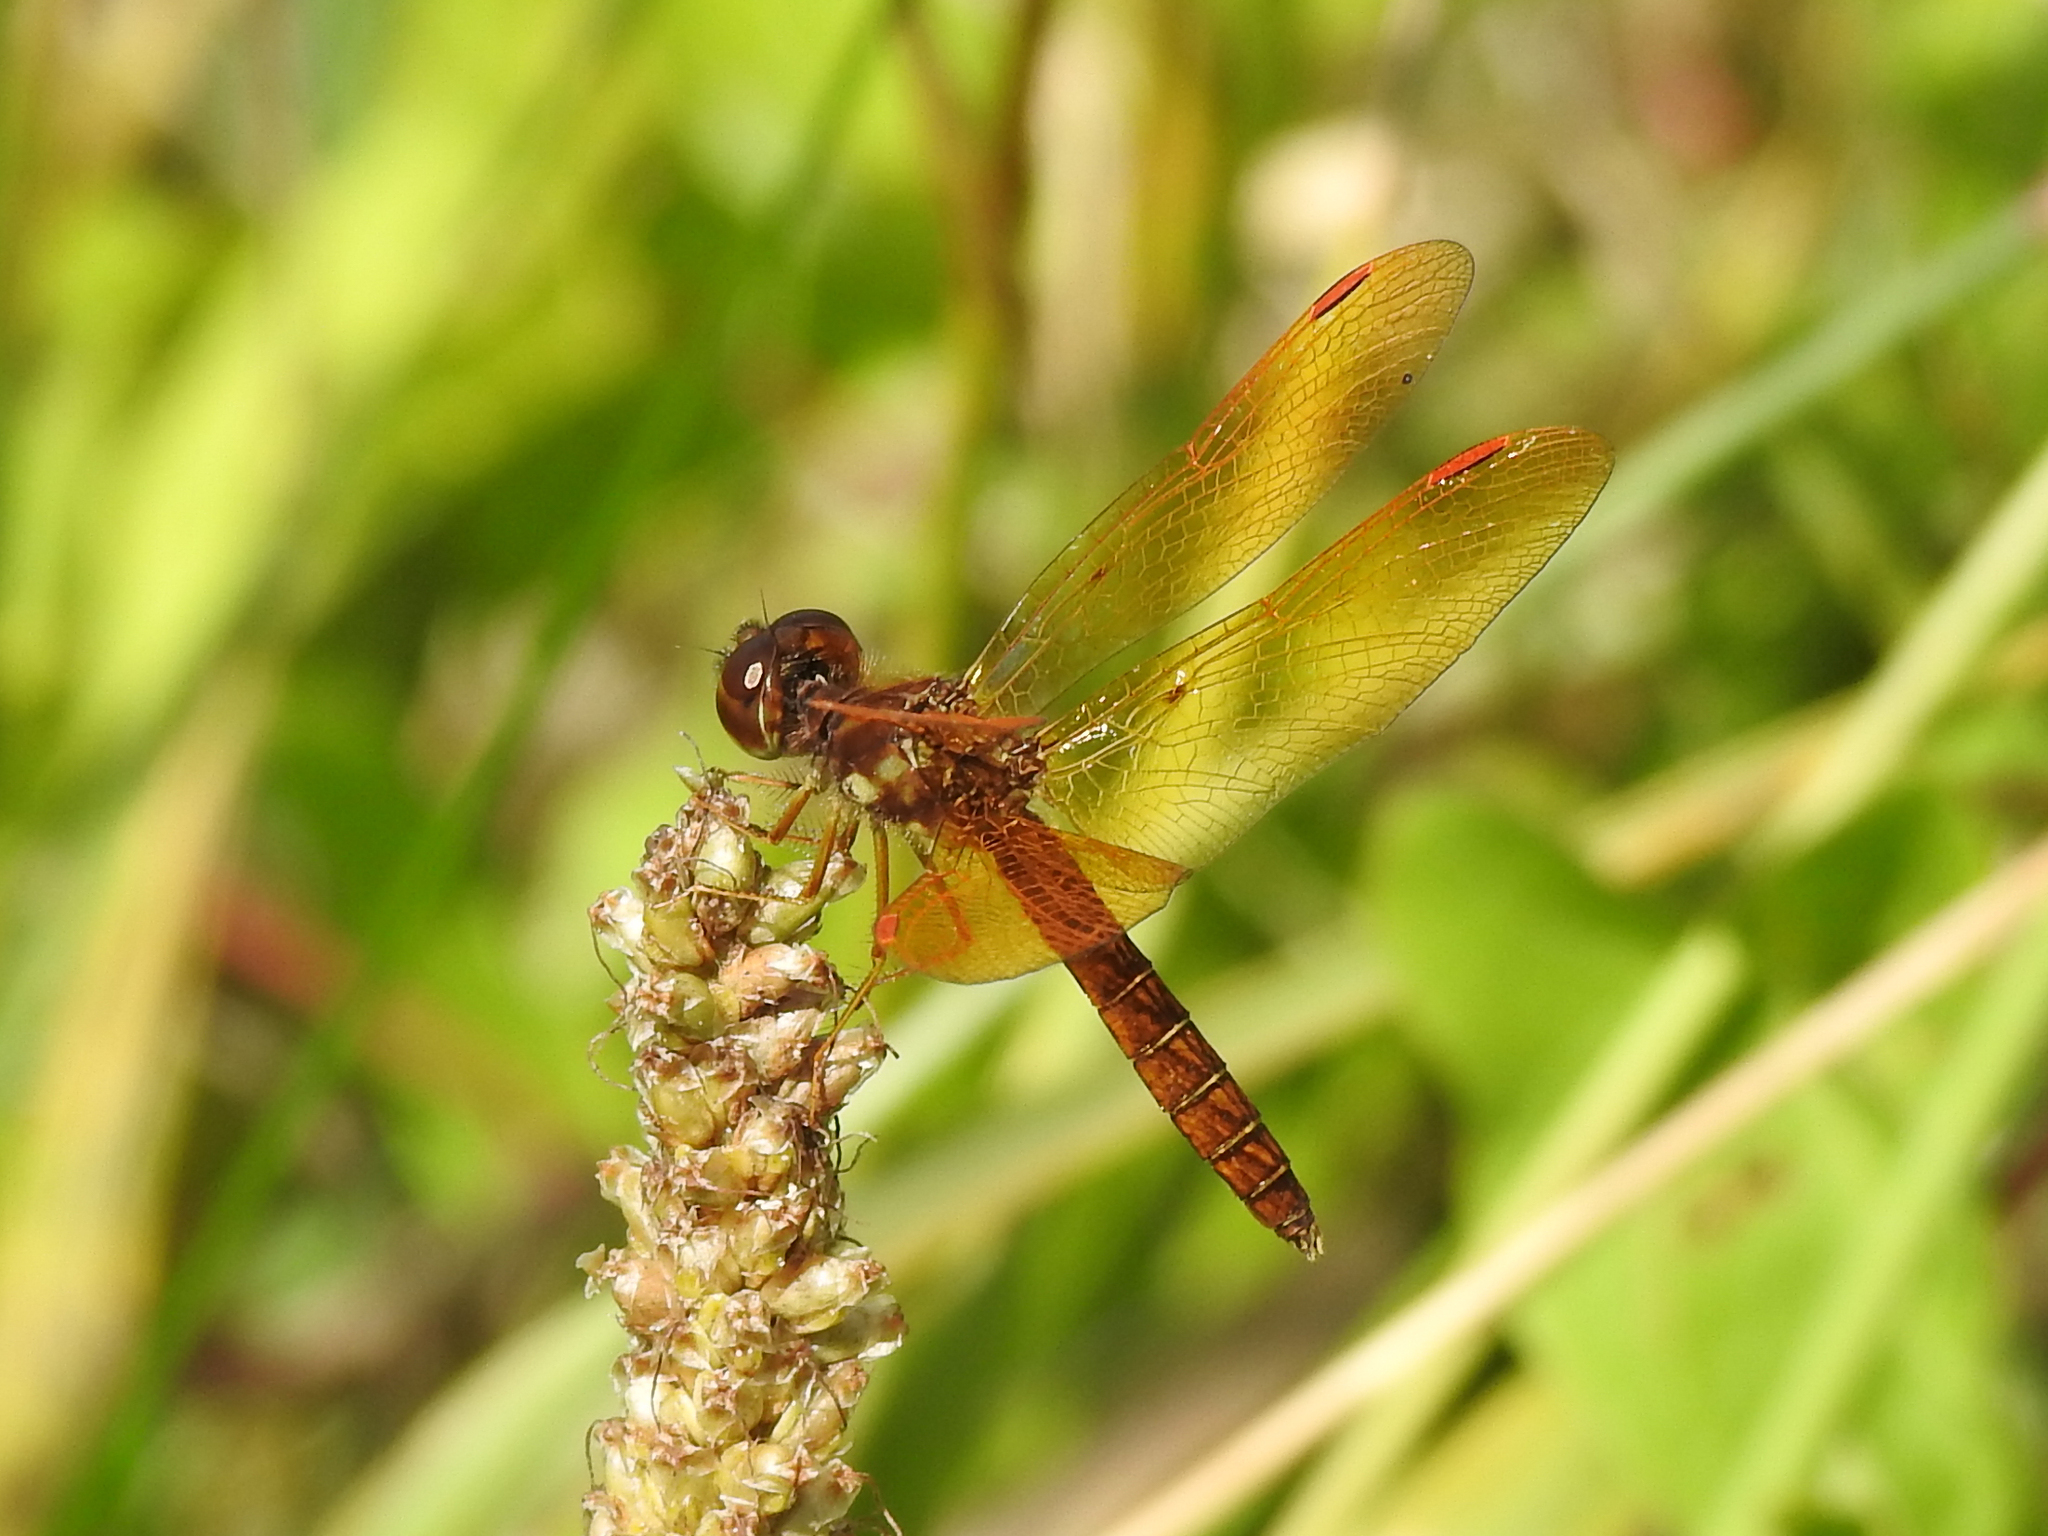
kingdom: Animalia
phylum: Arthropoda
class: Insecta
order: Odonata
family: Libellulidae
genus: Perithemis
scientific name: Perithemis tenera
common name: Eastern amberwing
